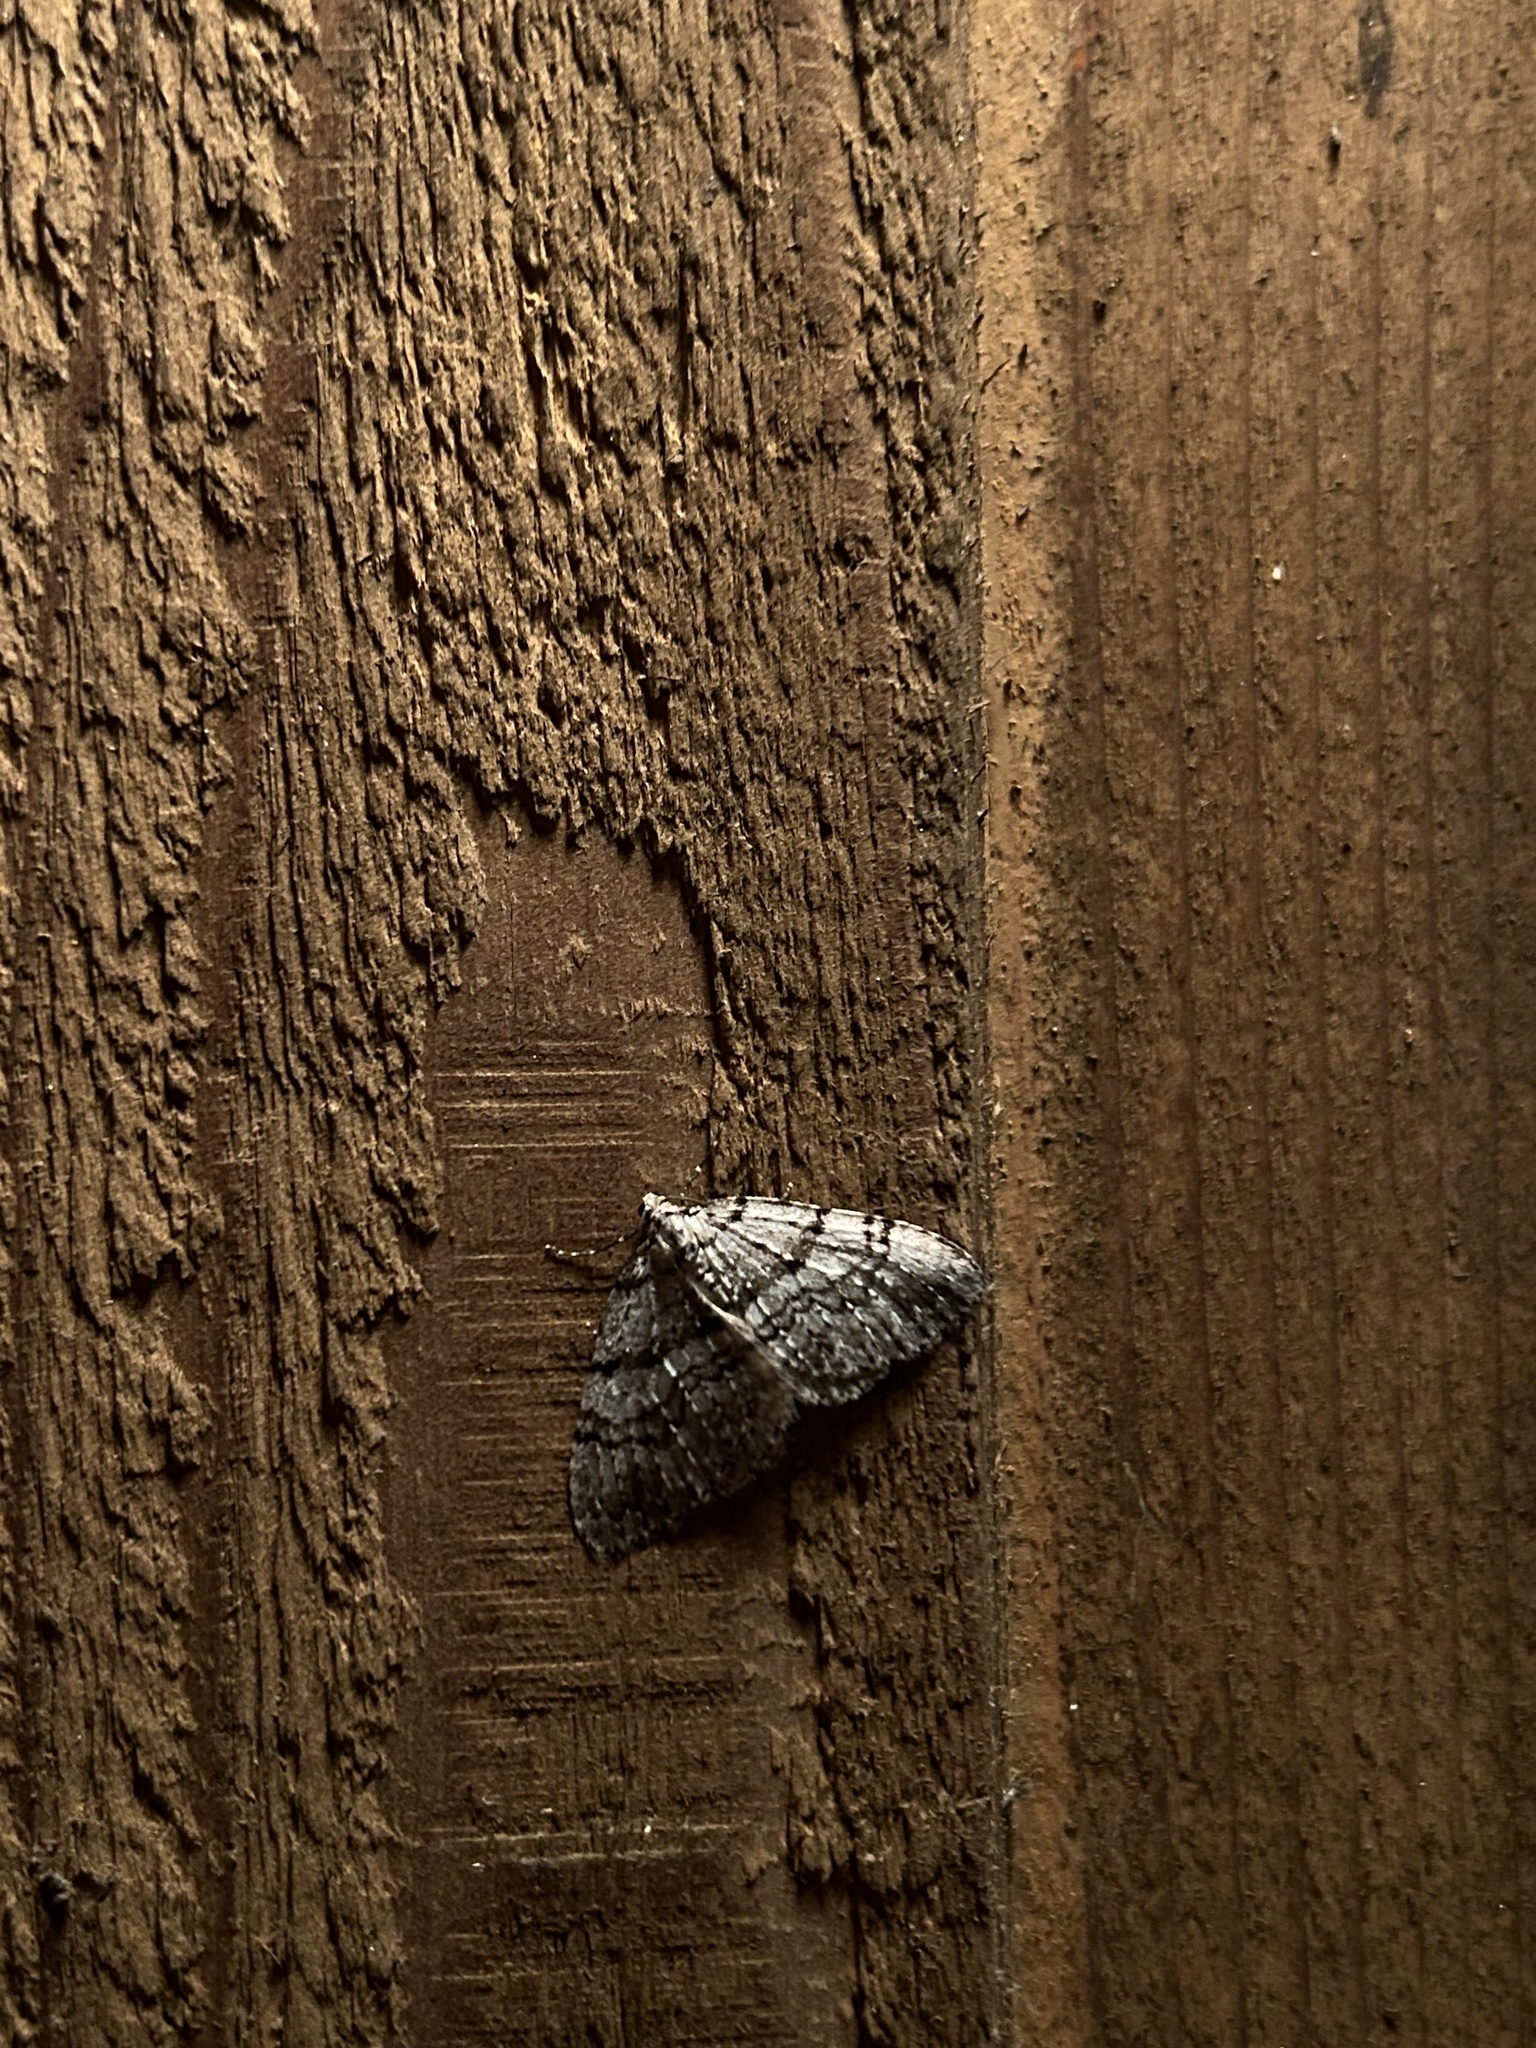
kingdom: Animalia
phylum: Arthropoda
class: Insecta
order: Lepidoptera
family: Geometridae
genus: Perizoma
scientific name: Perizoma curvilinea
